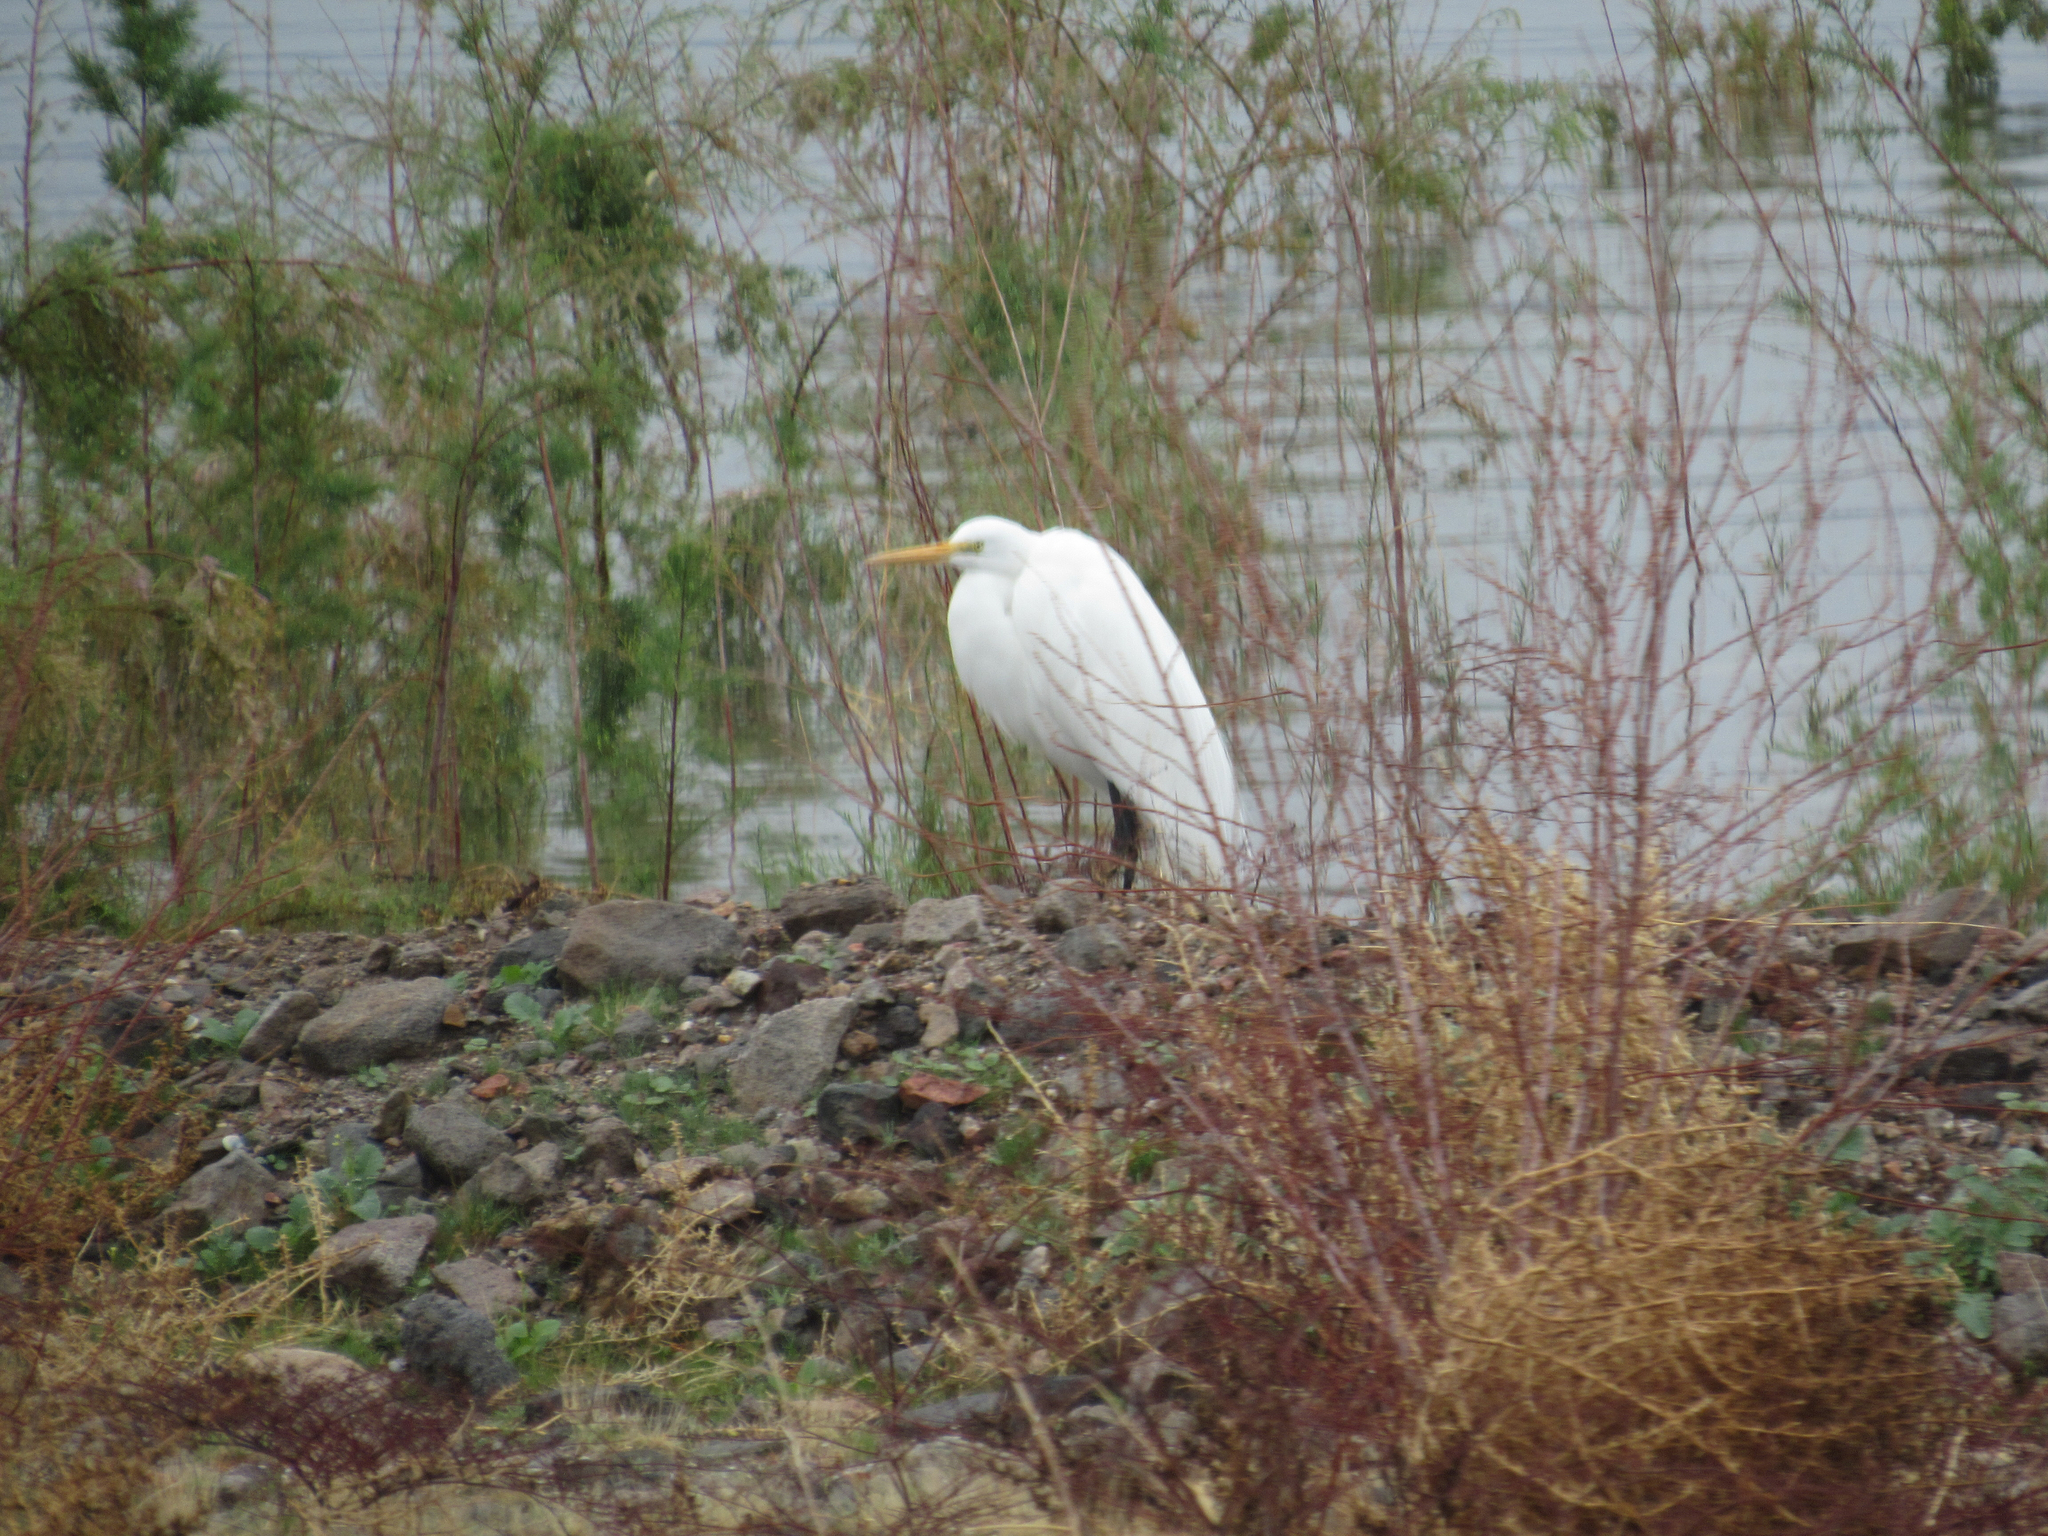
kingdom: Animalia
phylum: Chordata
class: Aves
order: Pelecaniformes
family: Ardeidae
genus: Ardea
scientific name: Ardea alba
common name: Great egret
